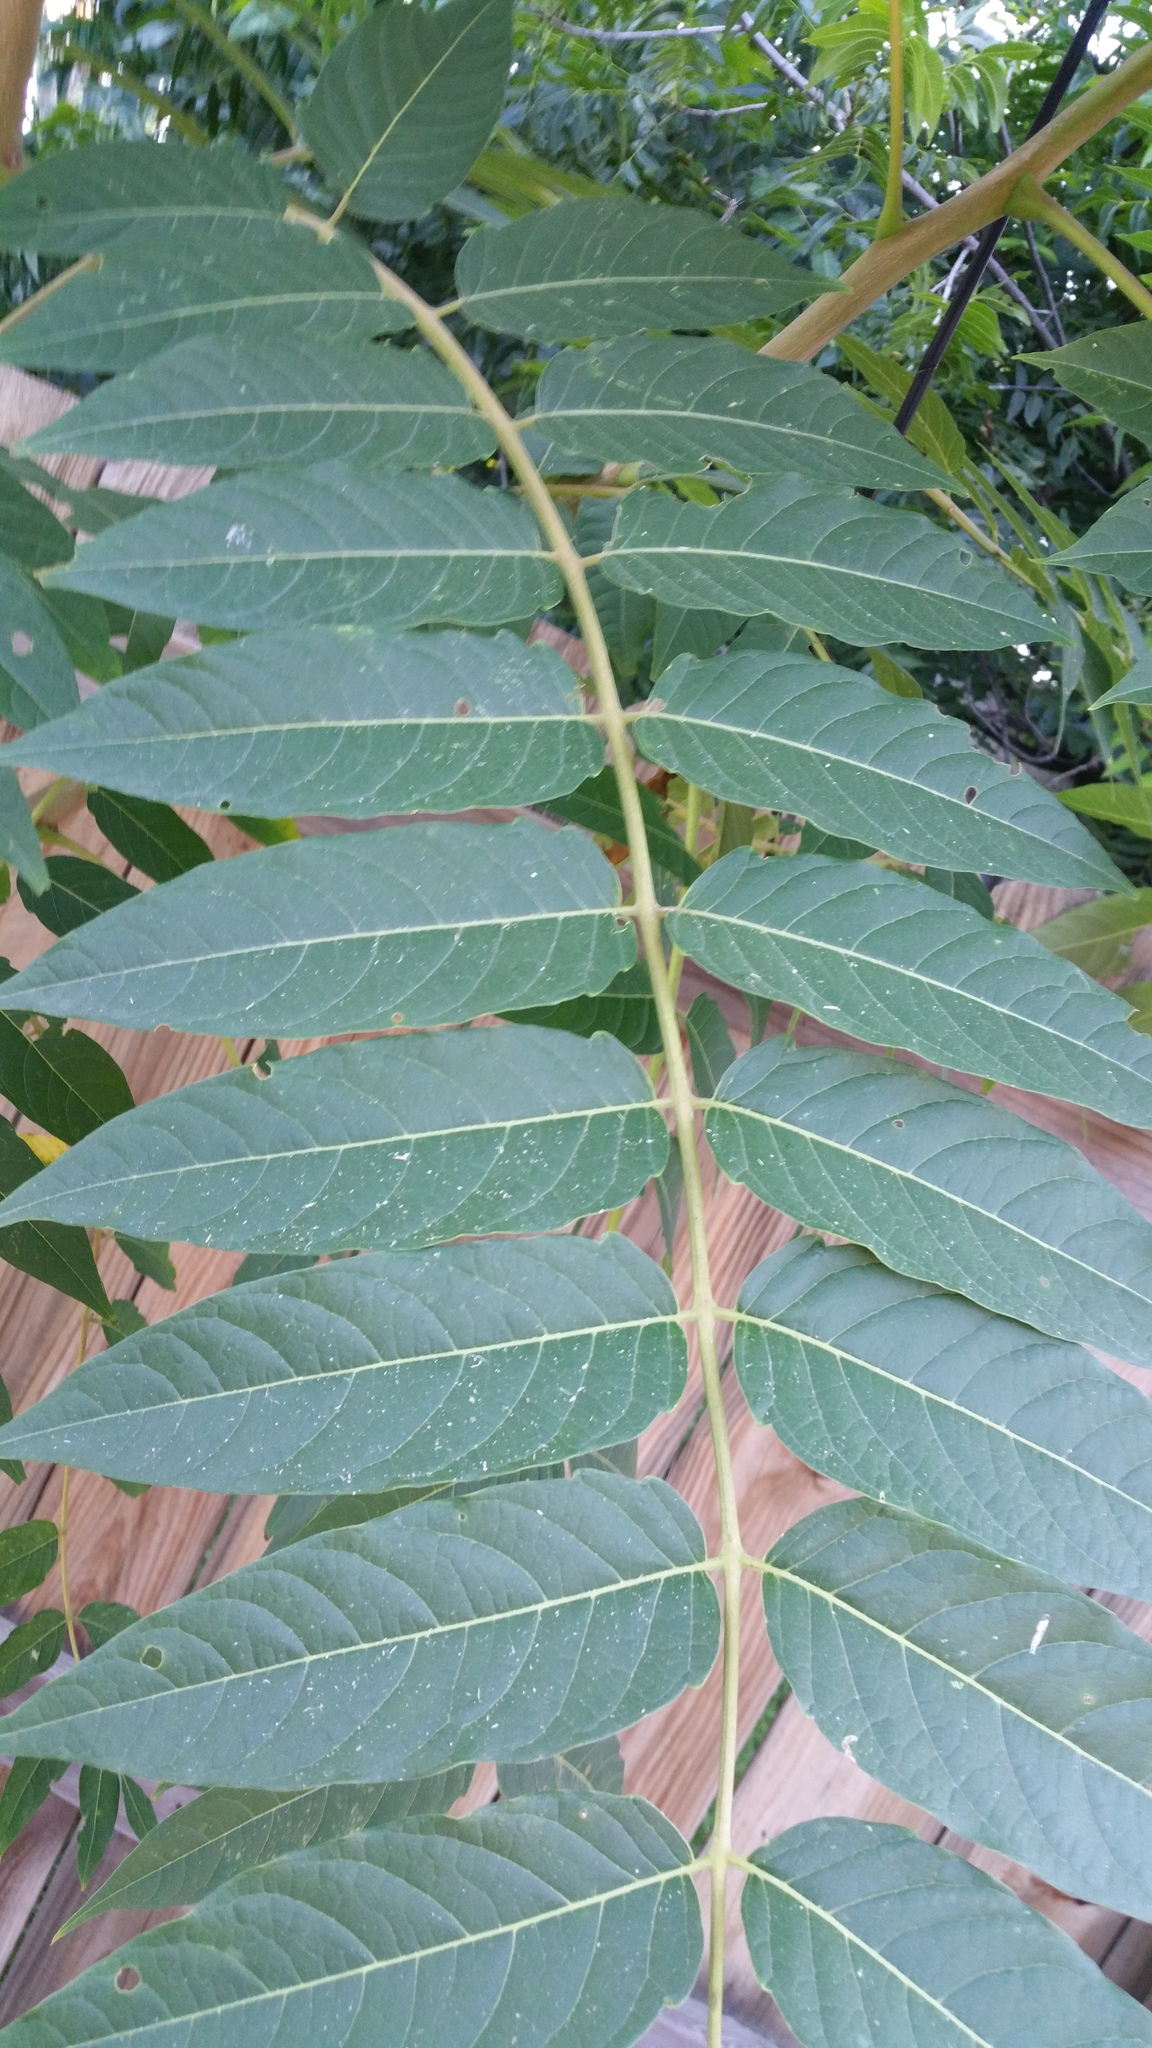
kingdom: Plantae
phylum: Tracheophyta
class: Magnoliopsida
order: Sapindales
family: Simaroubaceae
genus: Ailanthus
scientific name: Ailanthus altissima
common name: Tree-of-heaven
